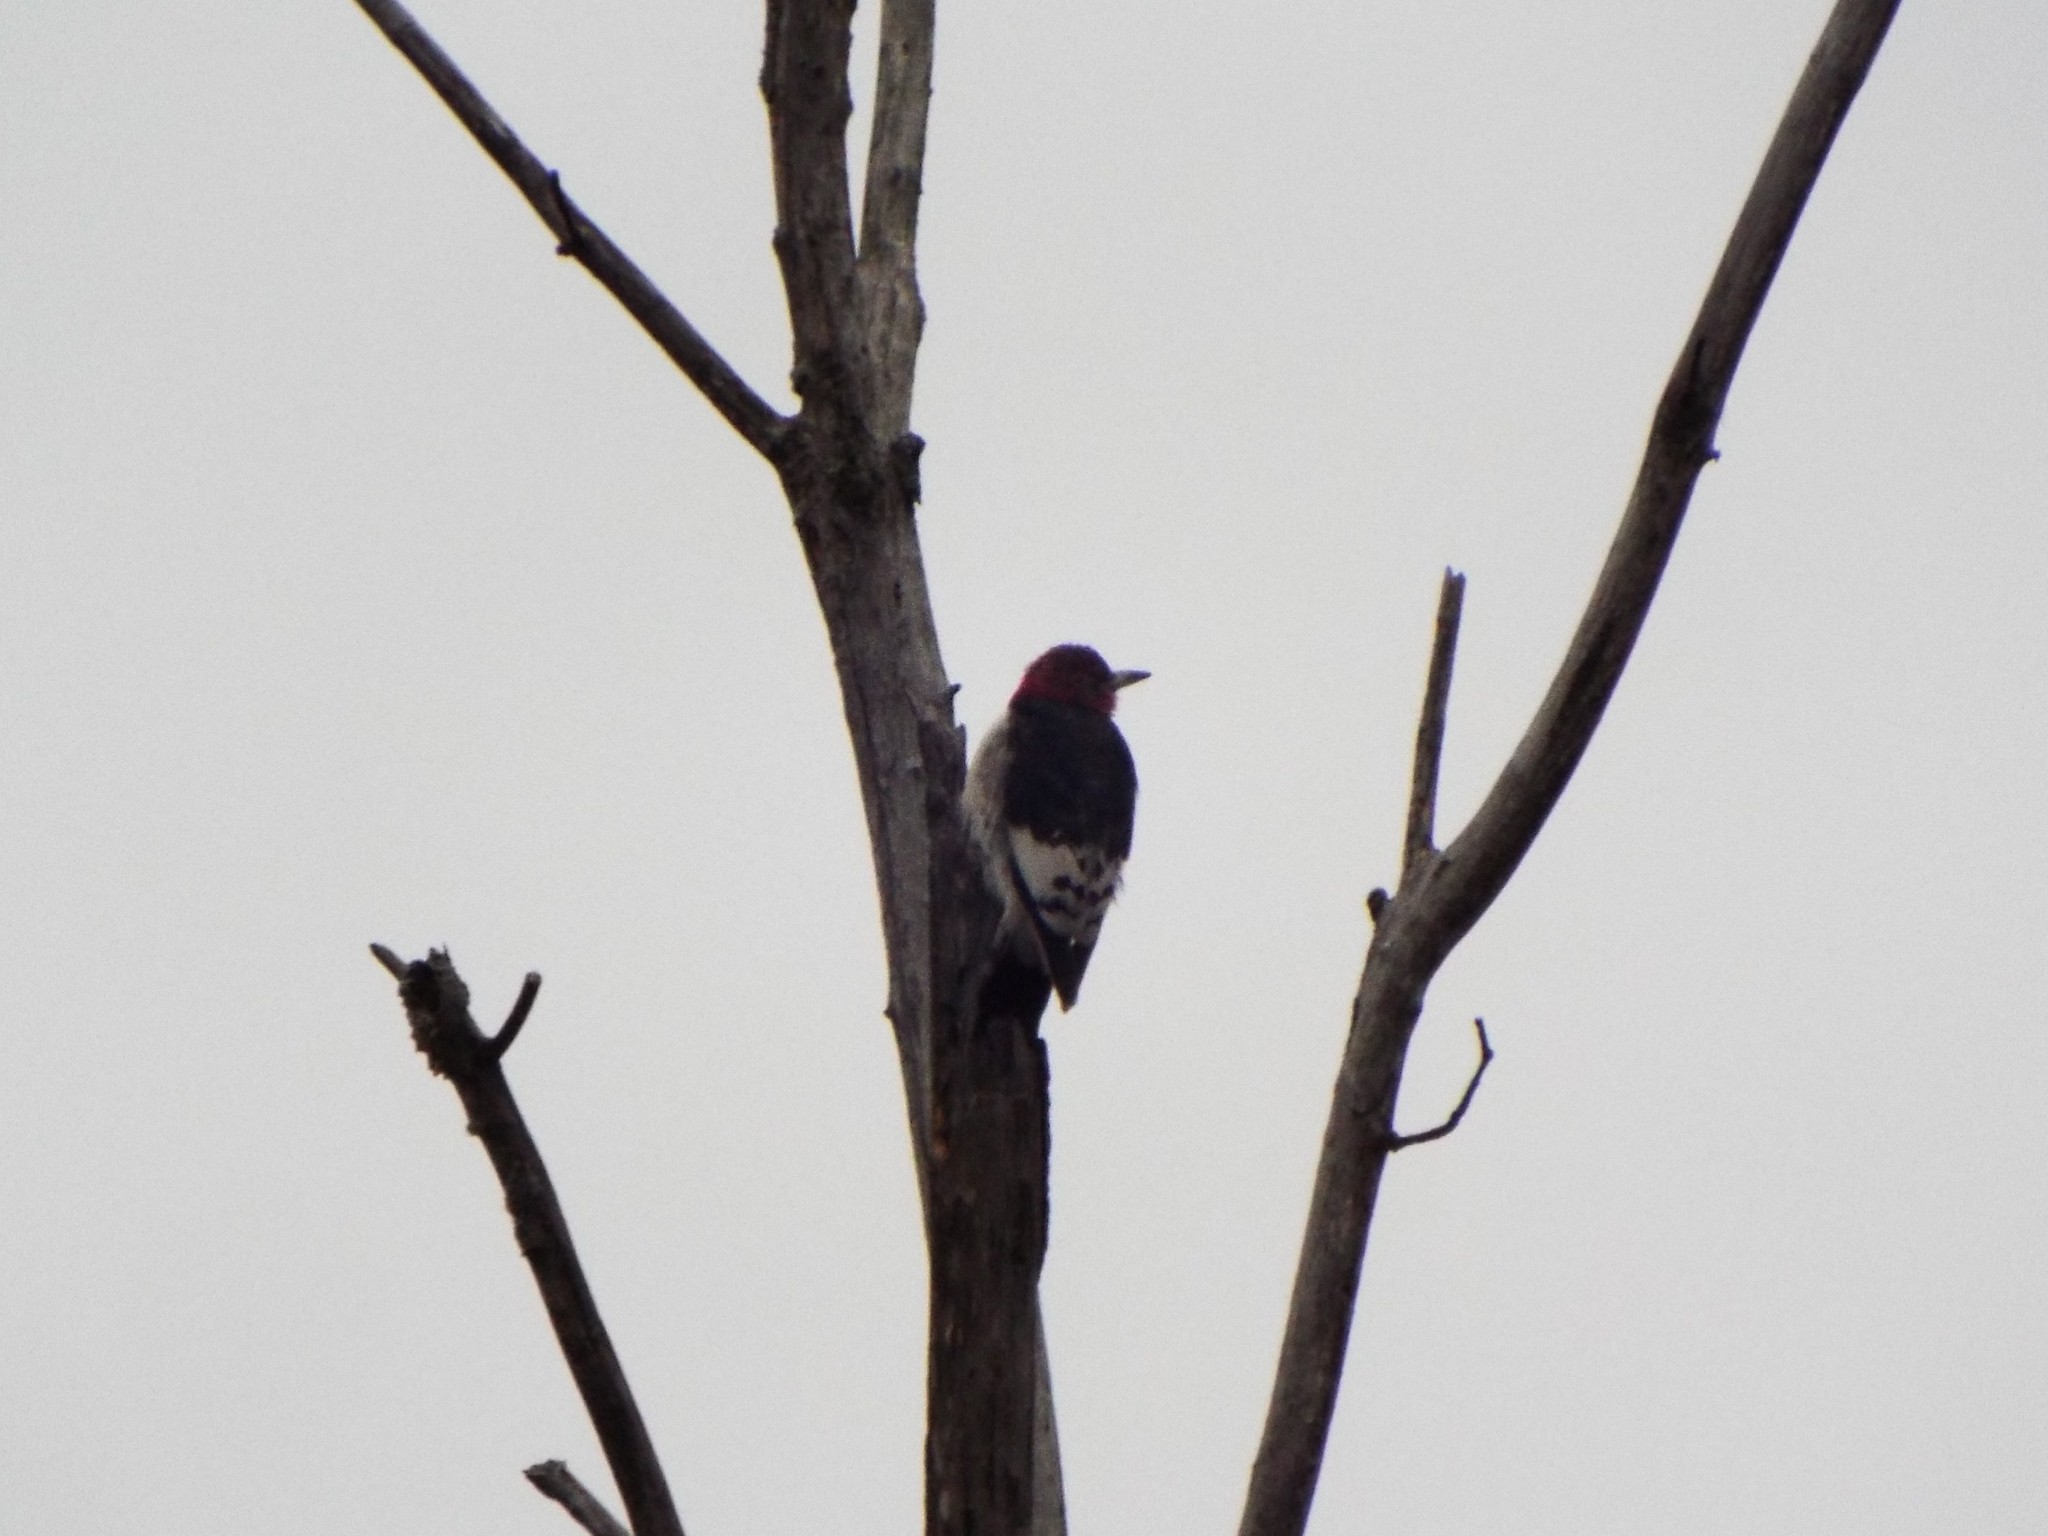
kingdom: Animalia
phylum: Chordata
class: Aves
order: Piciformes
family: Picidae
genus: Melanerpes
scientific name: Melanerpes erythrocephalus
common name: Red-headed woodpecker
